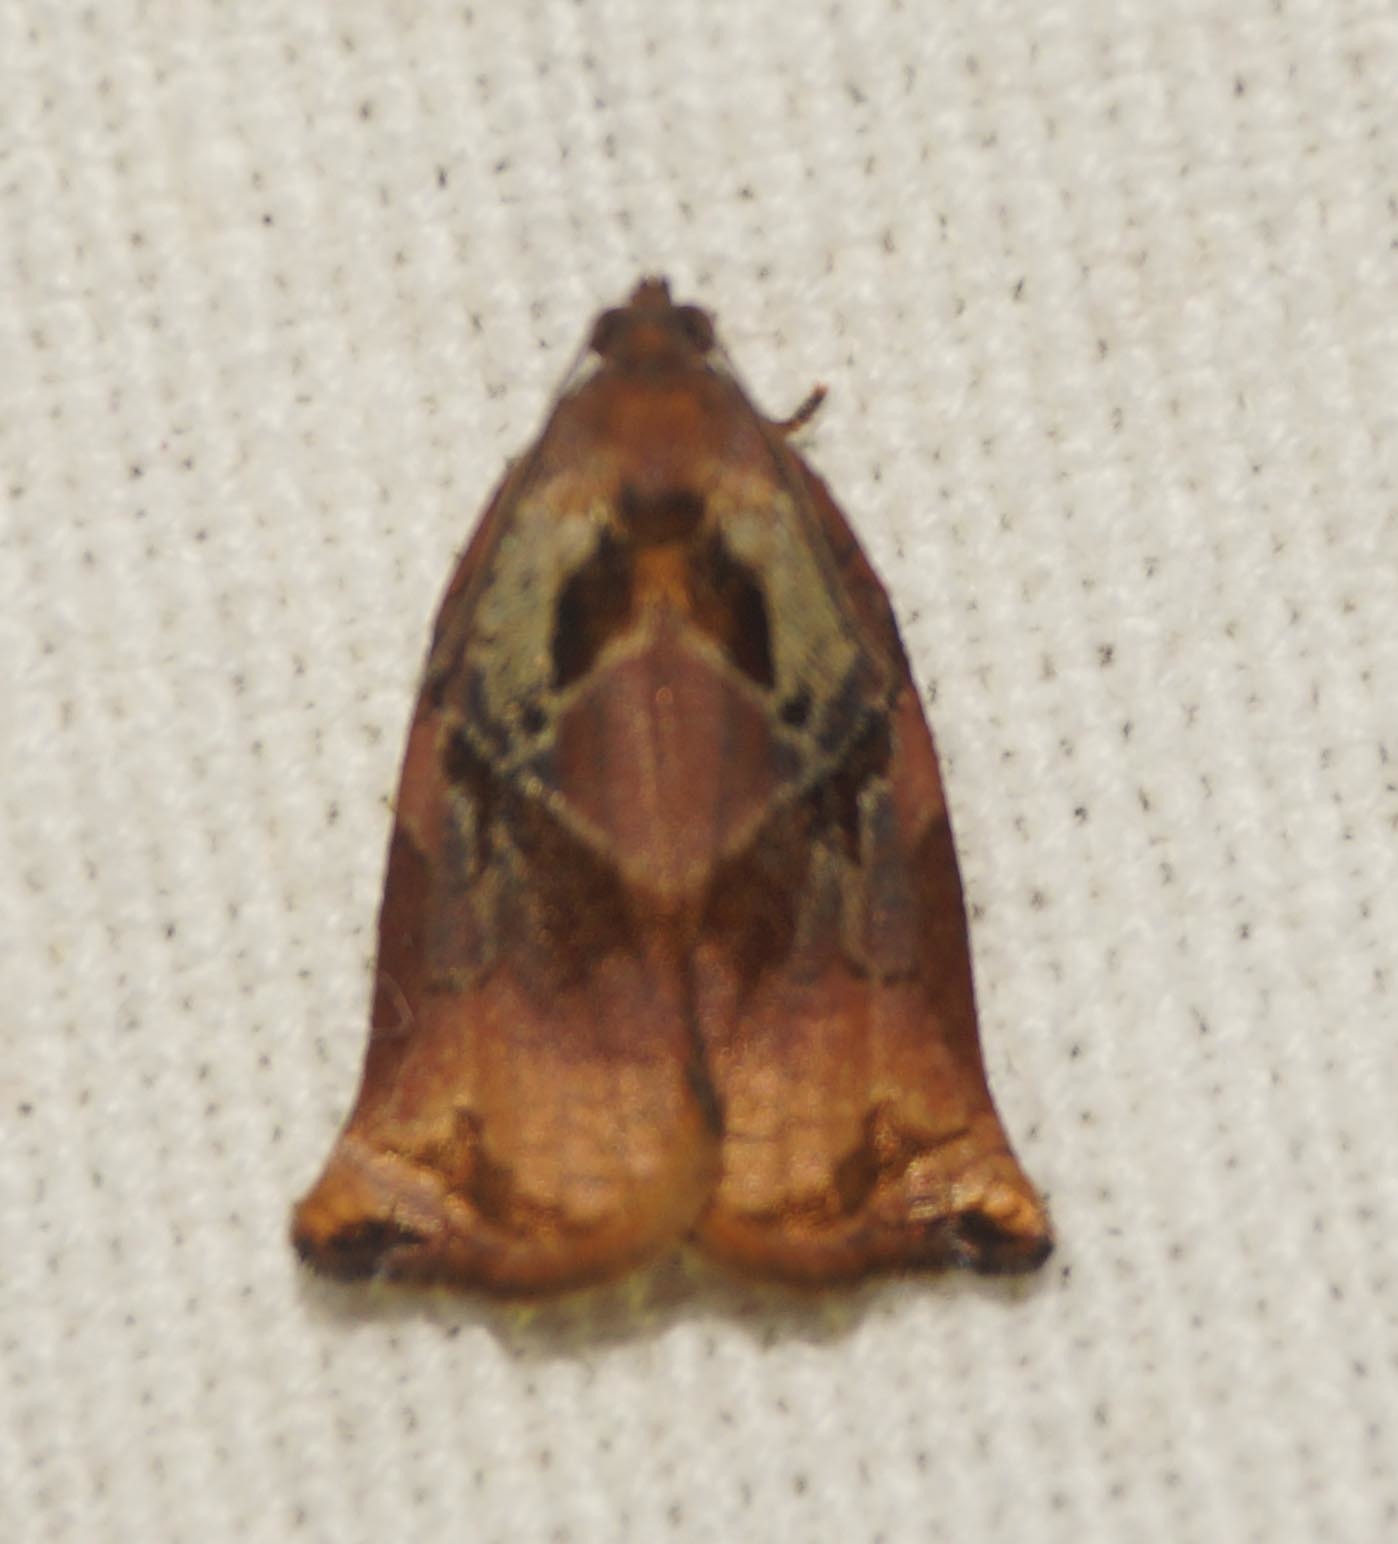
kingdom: Animalia
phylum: Arthropoda
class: Insecta
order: Lepidoptera
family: Tortricidae
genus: Archips
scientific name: Archips podana
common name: Large fruit-tree tortrix
